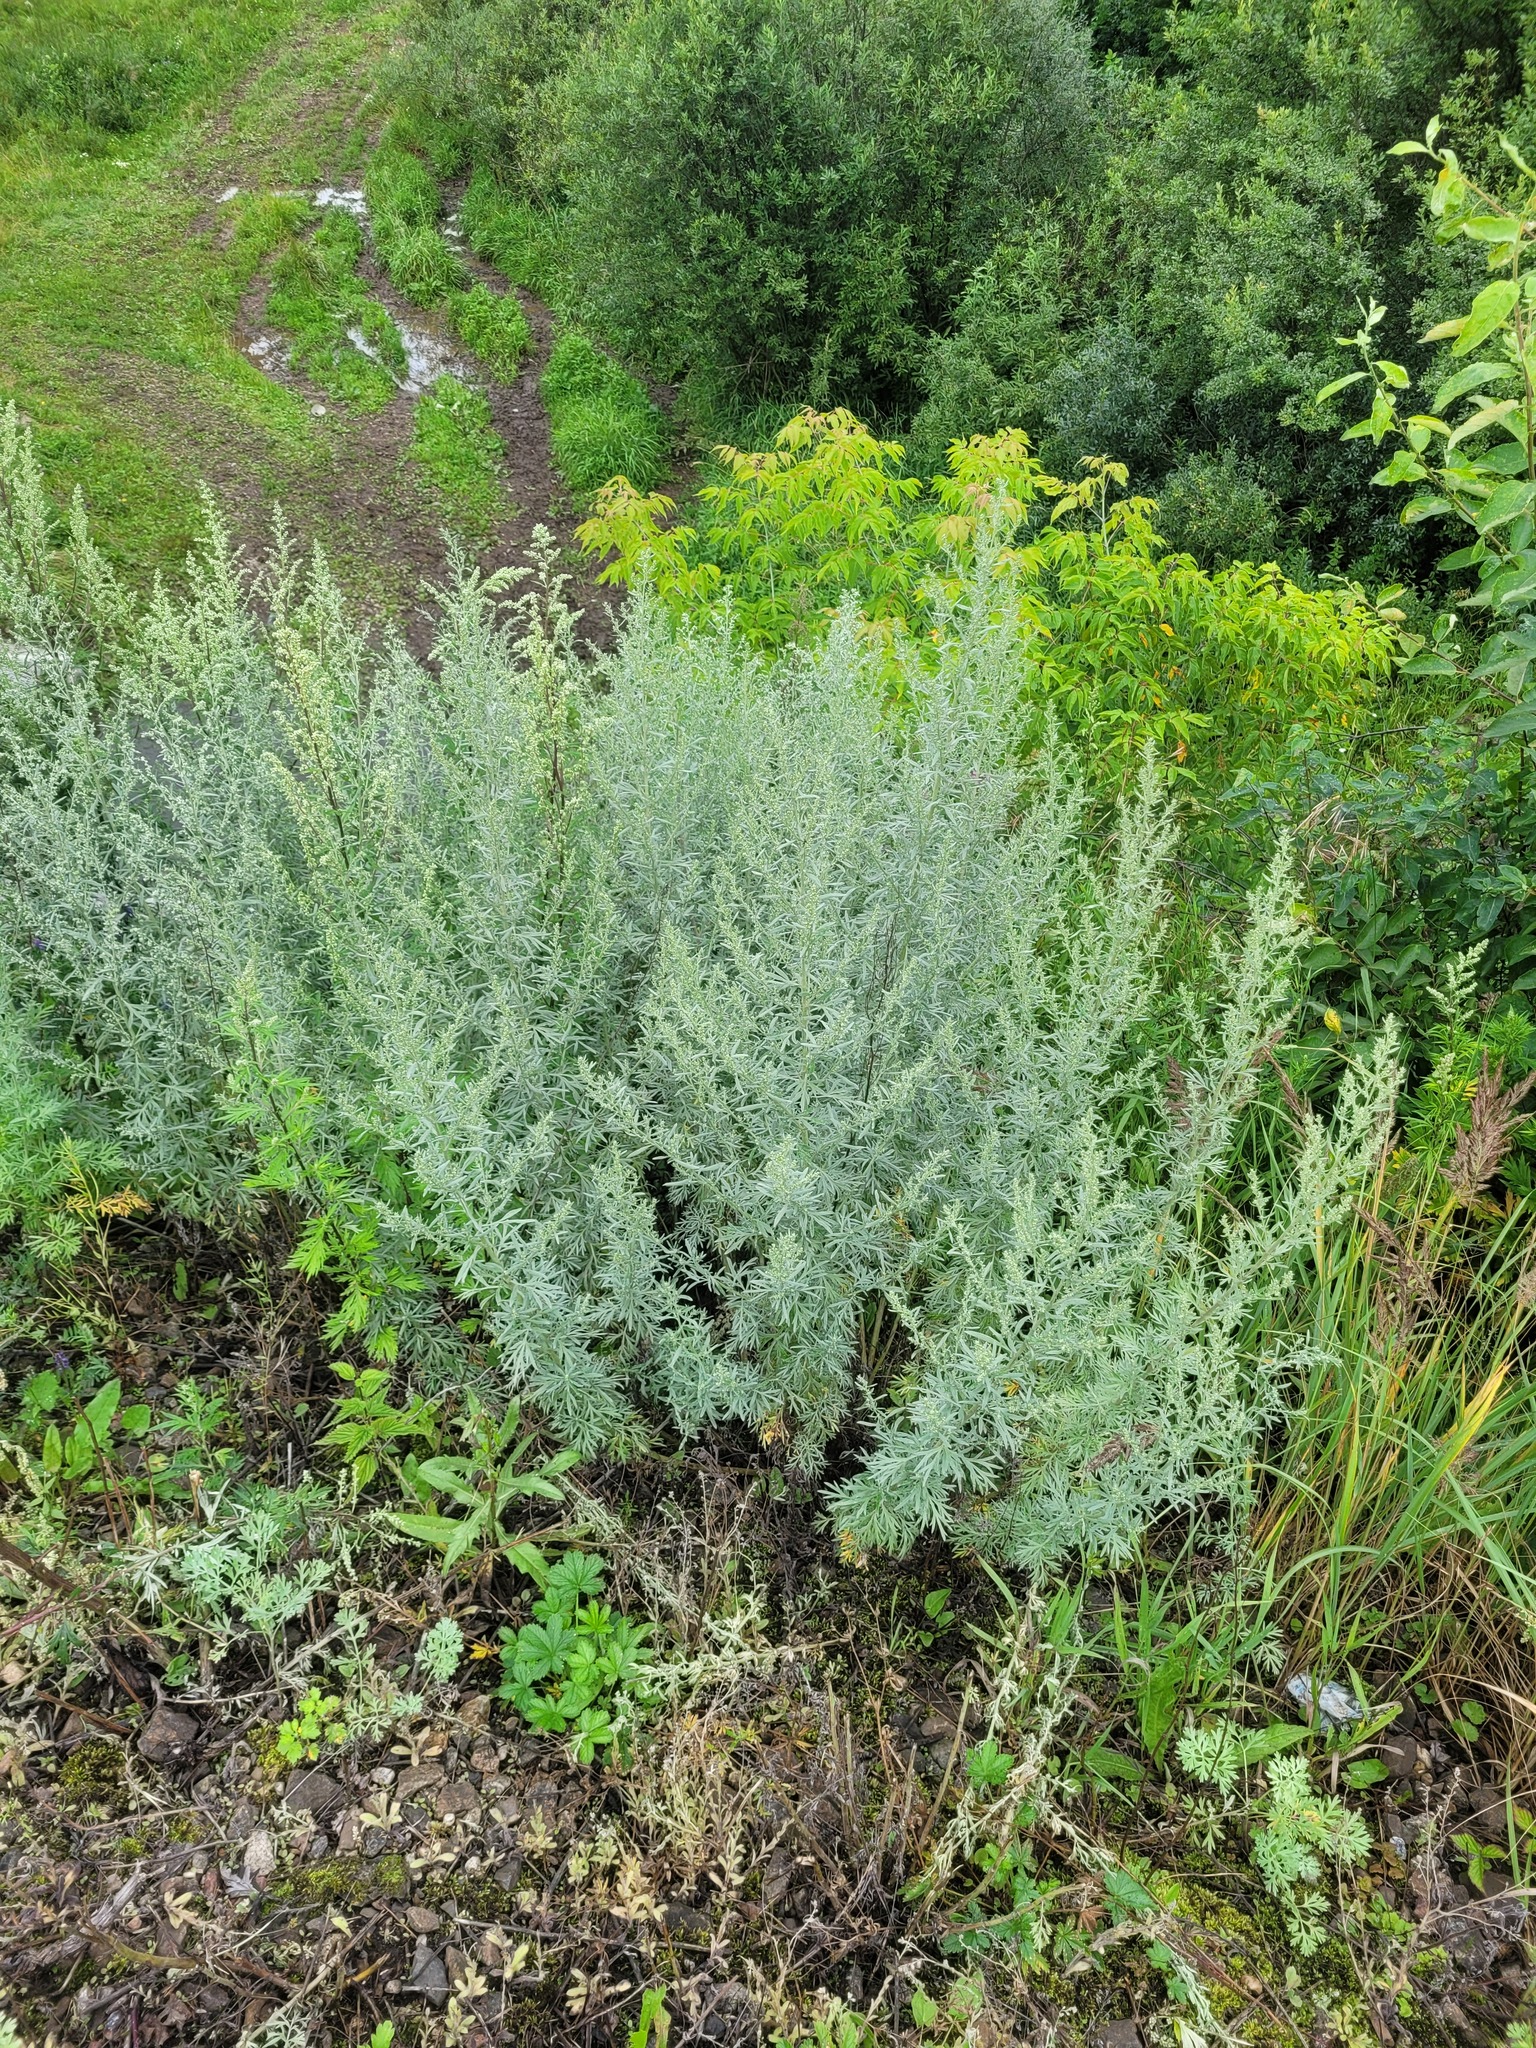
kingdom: Plantae
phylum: Tracheophyta
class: Magnoliopsida
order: Asterales
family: Asteraceae
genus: Artemisia
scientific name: Artemisia absinthium
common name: Wormwood
